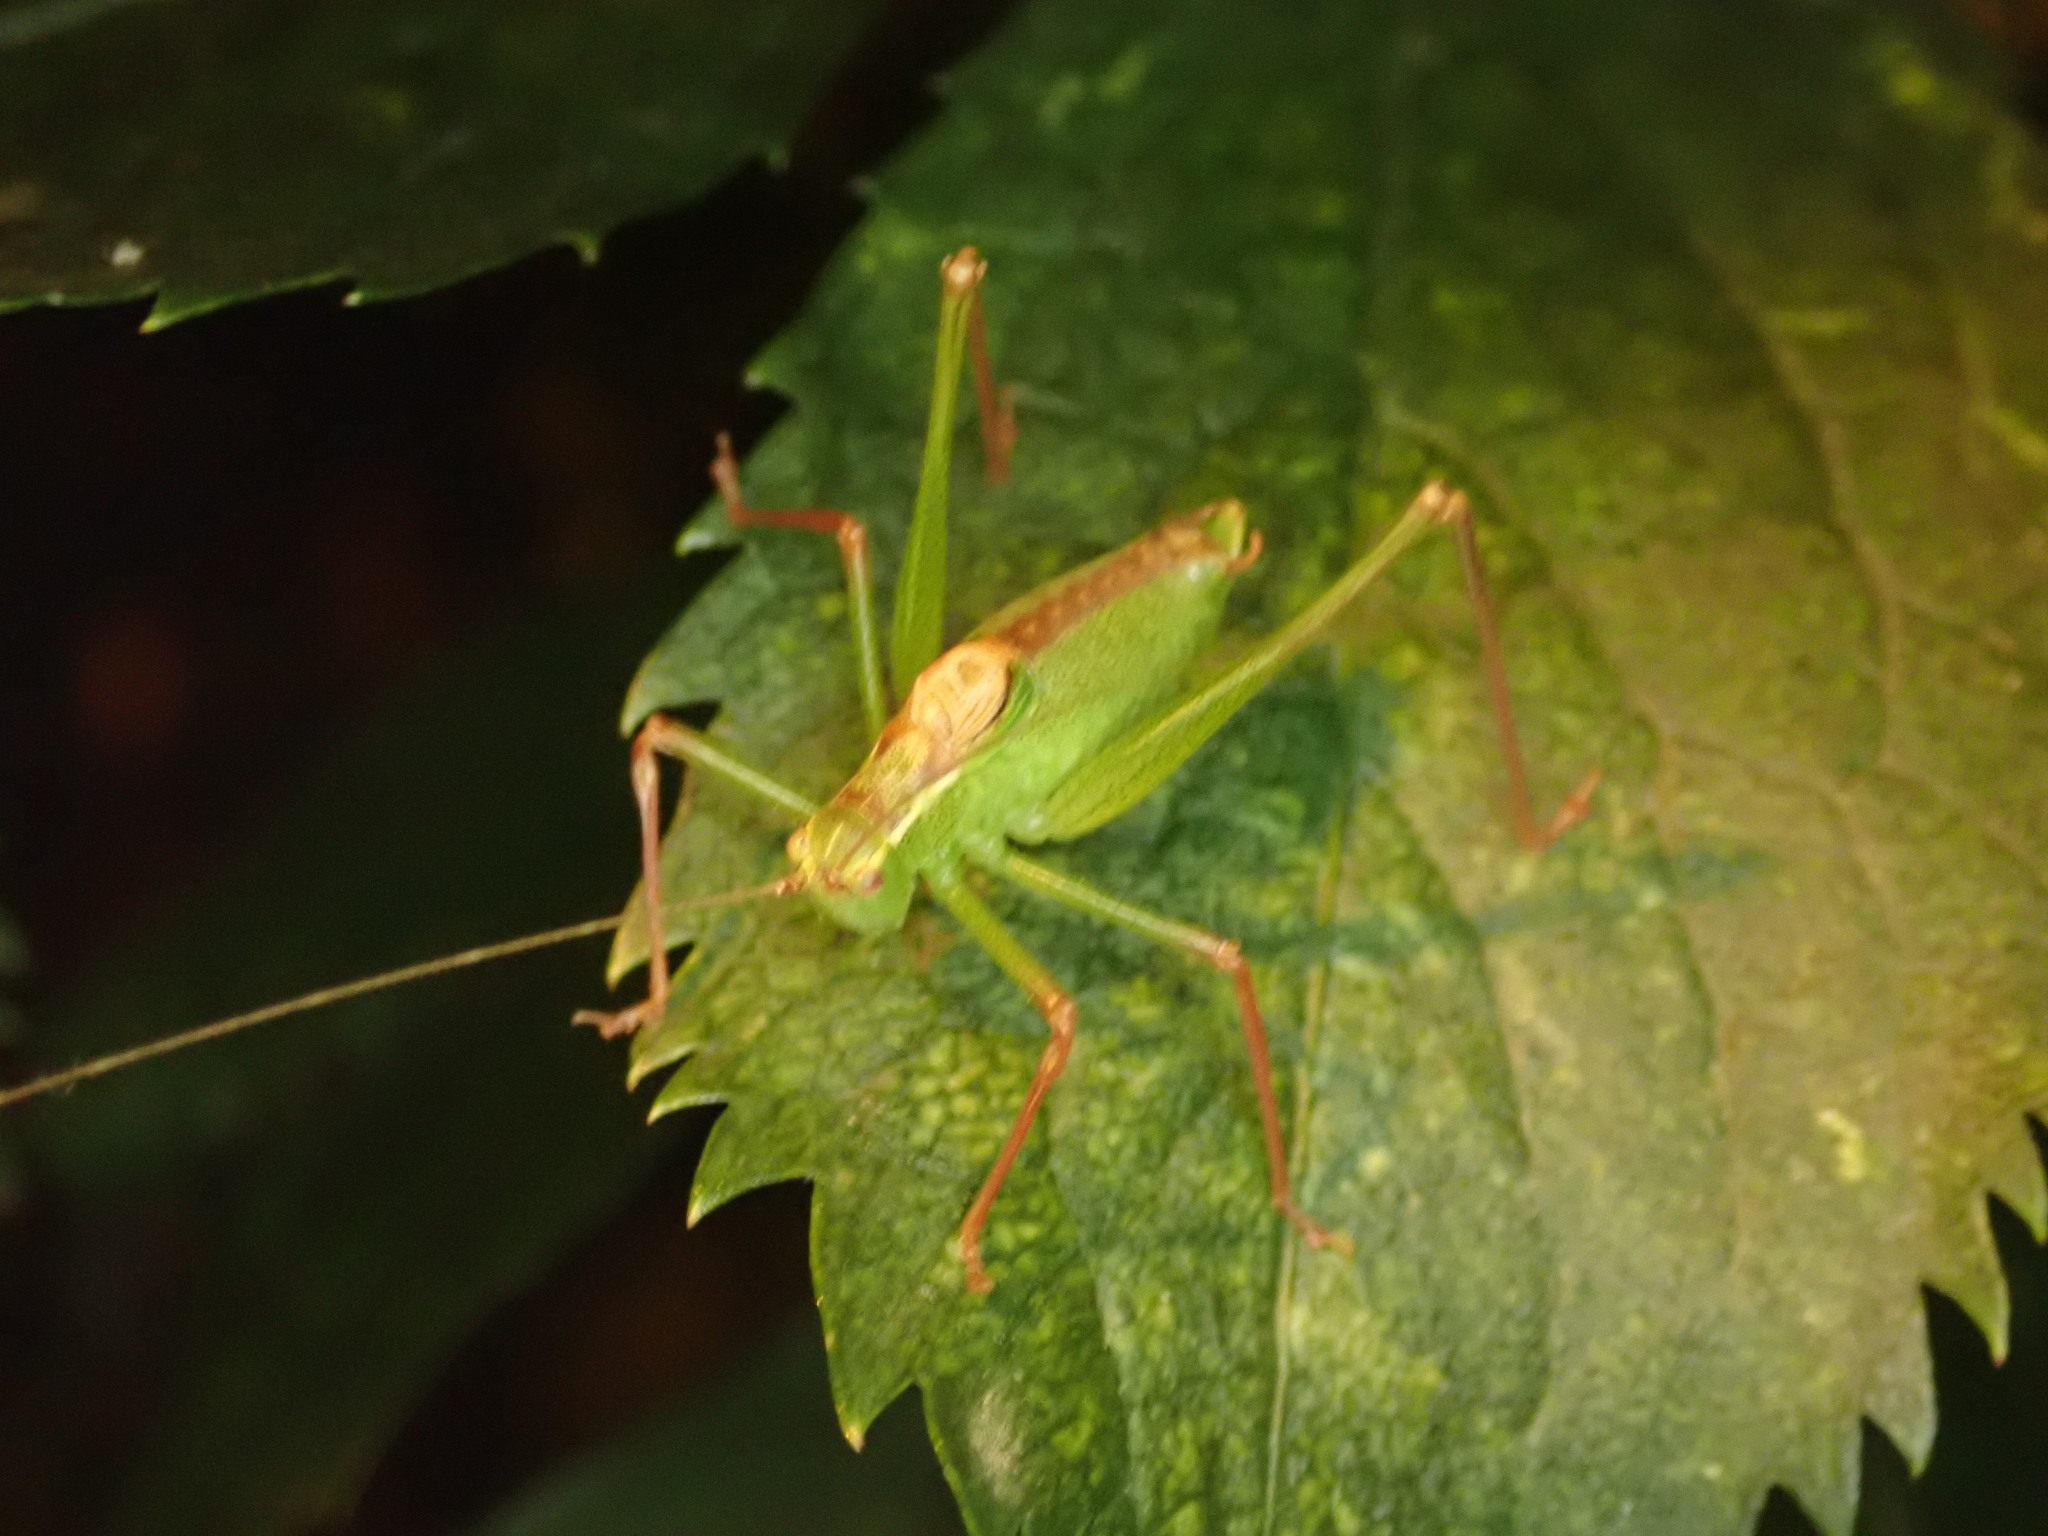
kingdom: Animalia
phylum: Arthropoda
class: Insecta
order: Orthoptera
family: Tettigoniidae
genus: Leptophyes
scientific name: Leptophyes punctatissima
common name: Speckled bush-cricket
